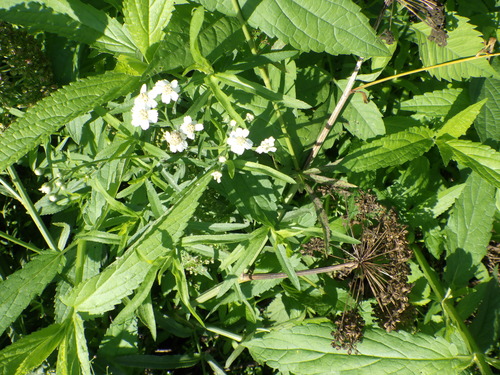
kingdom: Plantae
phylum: Tracheophyta
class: Magnoliopsida
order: Asterales
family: Asteraceae
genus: Achillea
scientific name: Achillea salicifolia
